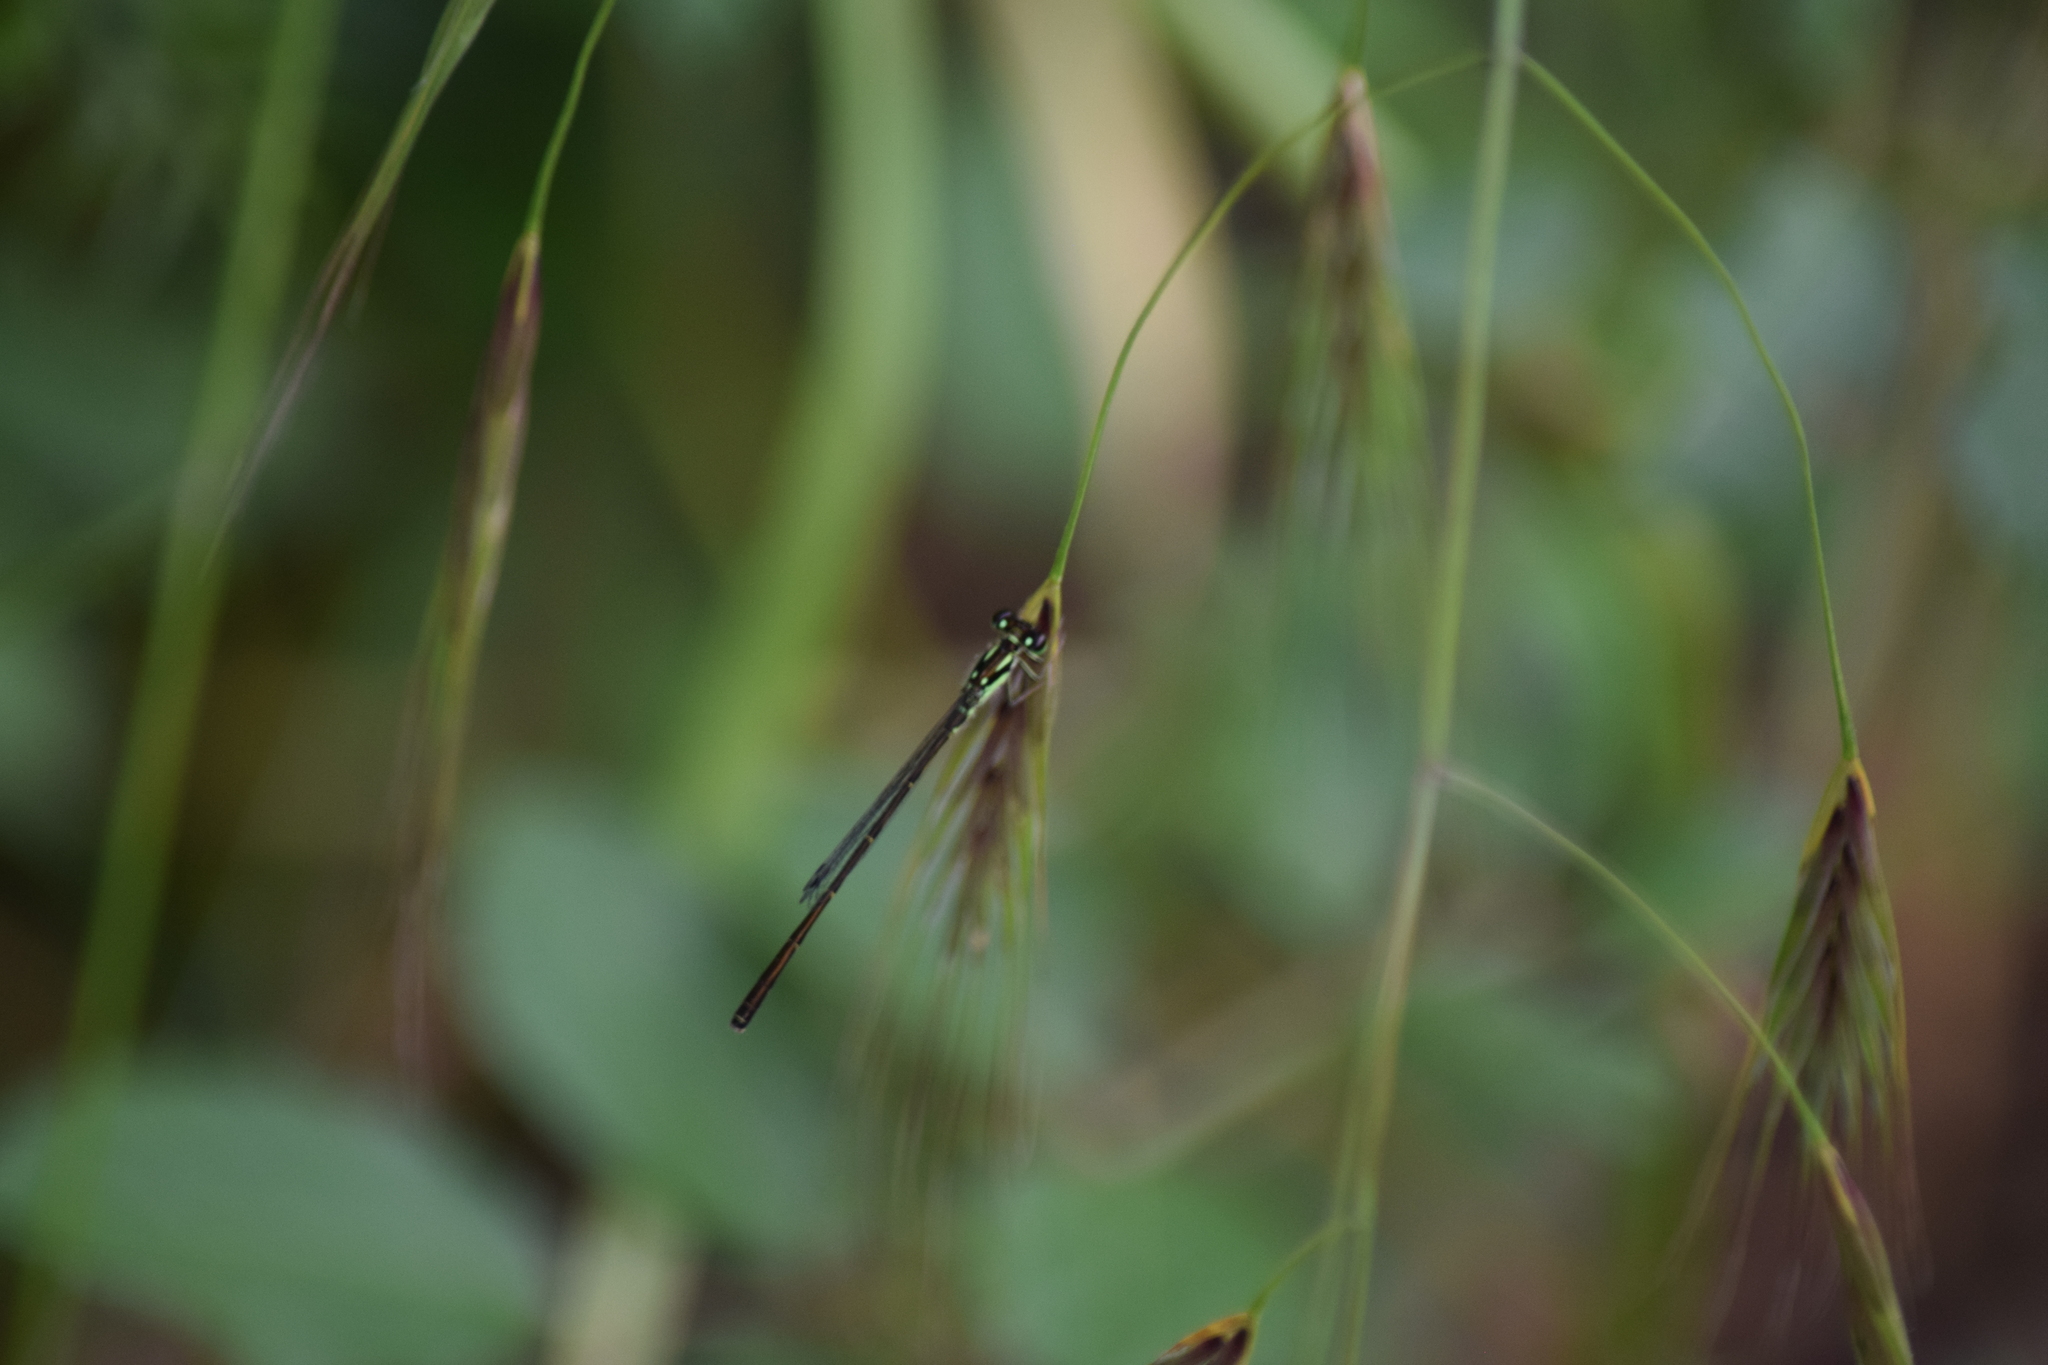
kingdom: Animalia
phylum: Arthropoda
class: Insecta
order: Odonata
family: Coenagrionidae
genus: Ischnura
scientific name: Ischnura posita
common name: Fragile forktail
